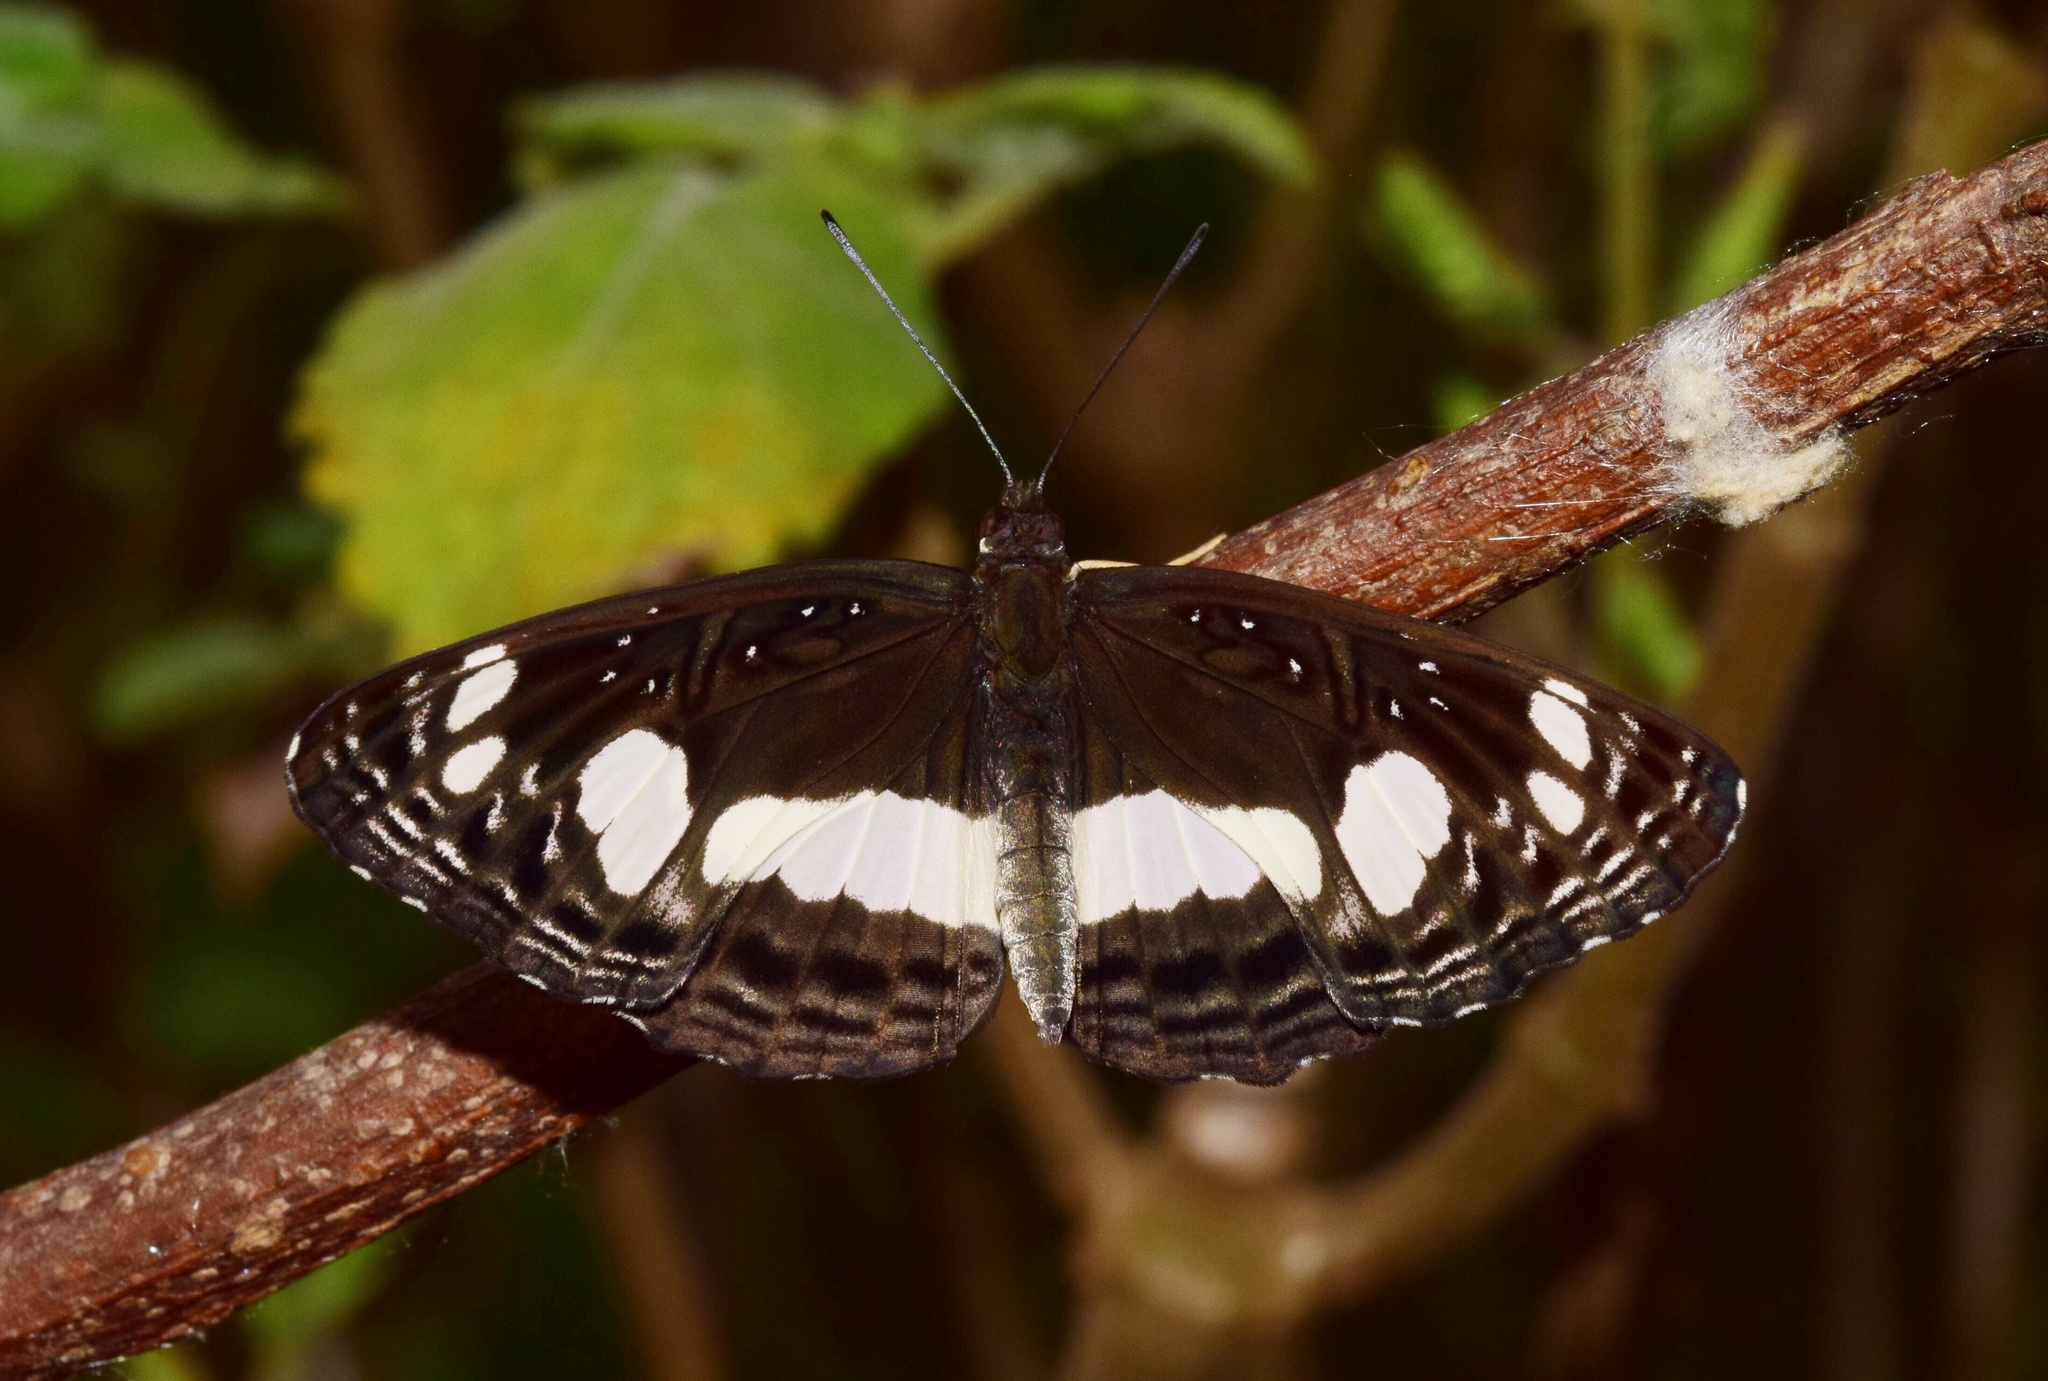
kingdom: Animalia
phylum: Arthropoda
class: Insecta
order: Lepidoptera
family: Nymphalidae
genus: Neptis
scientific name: Neptis saclava
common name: Small spotted sailor
